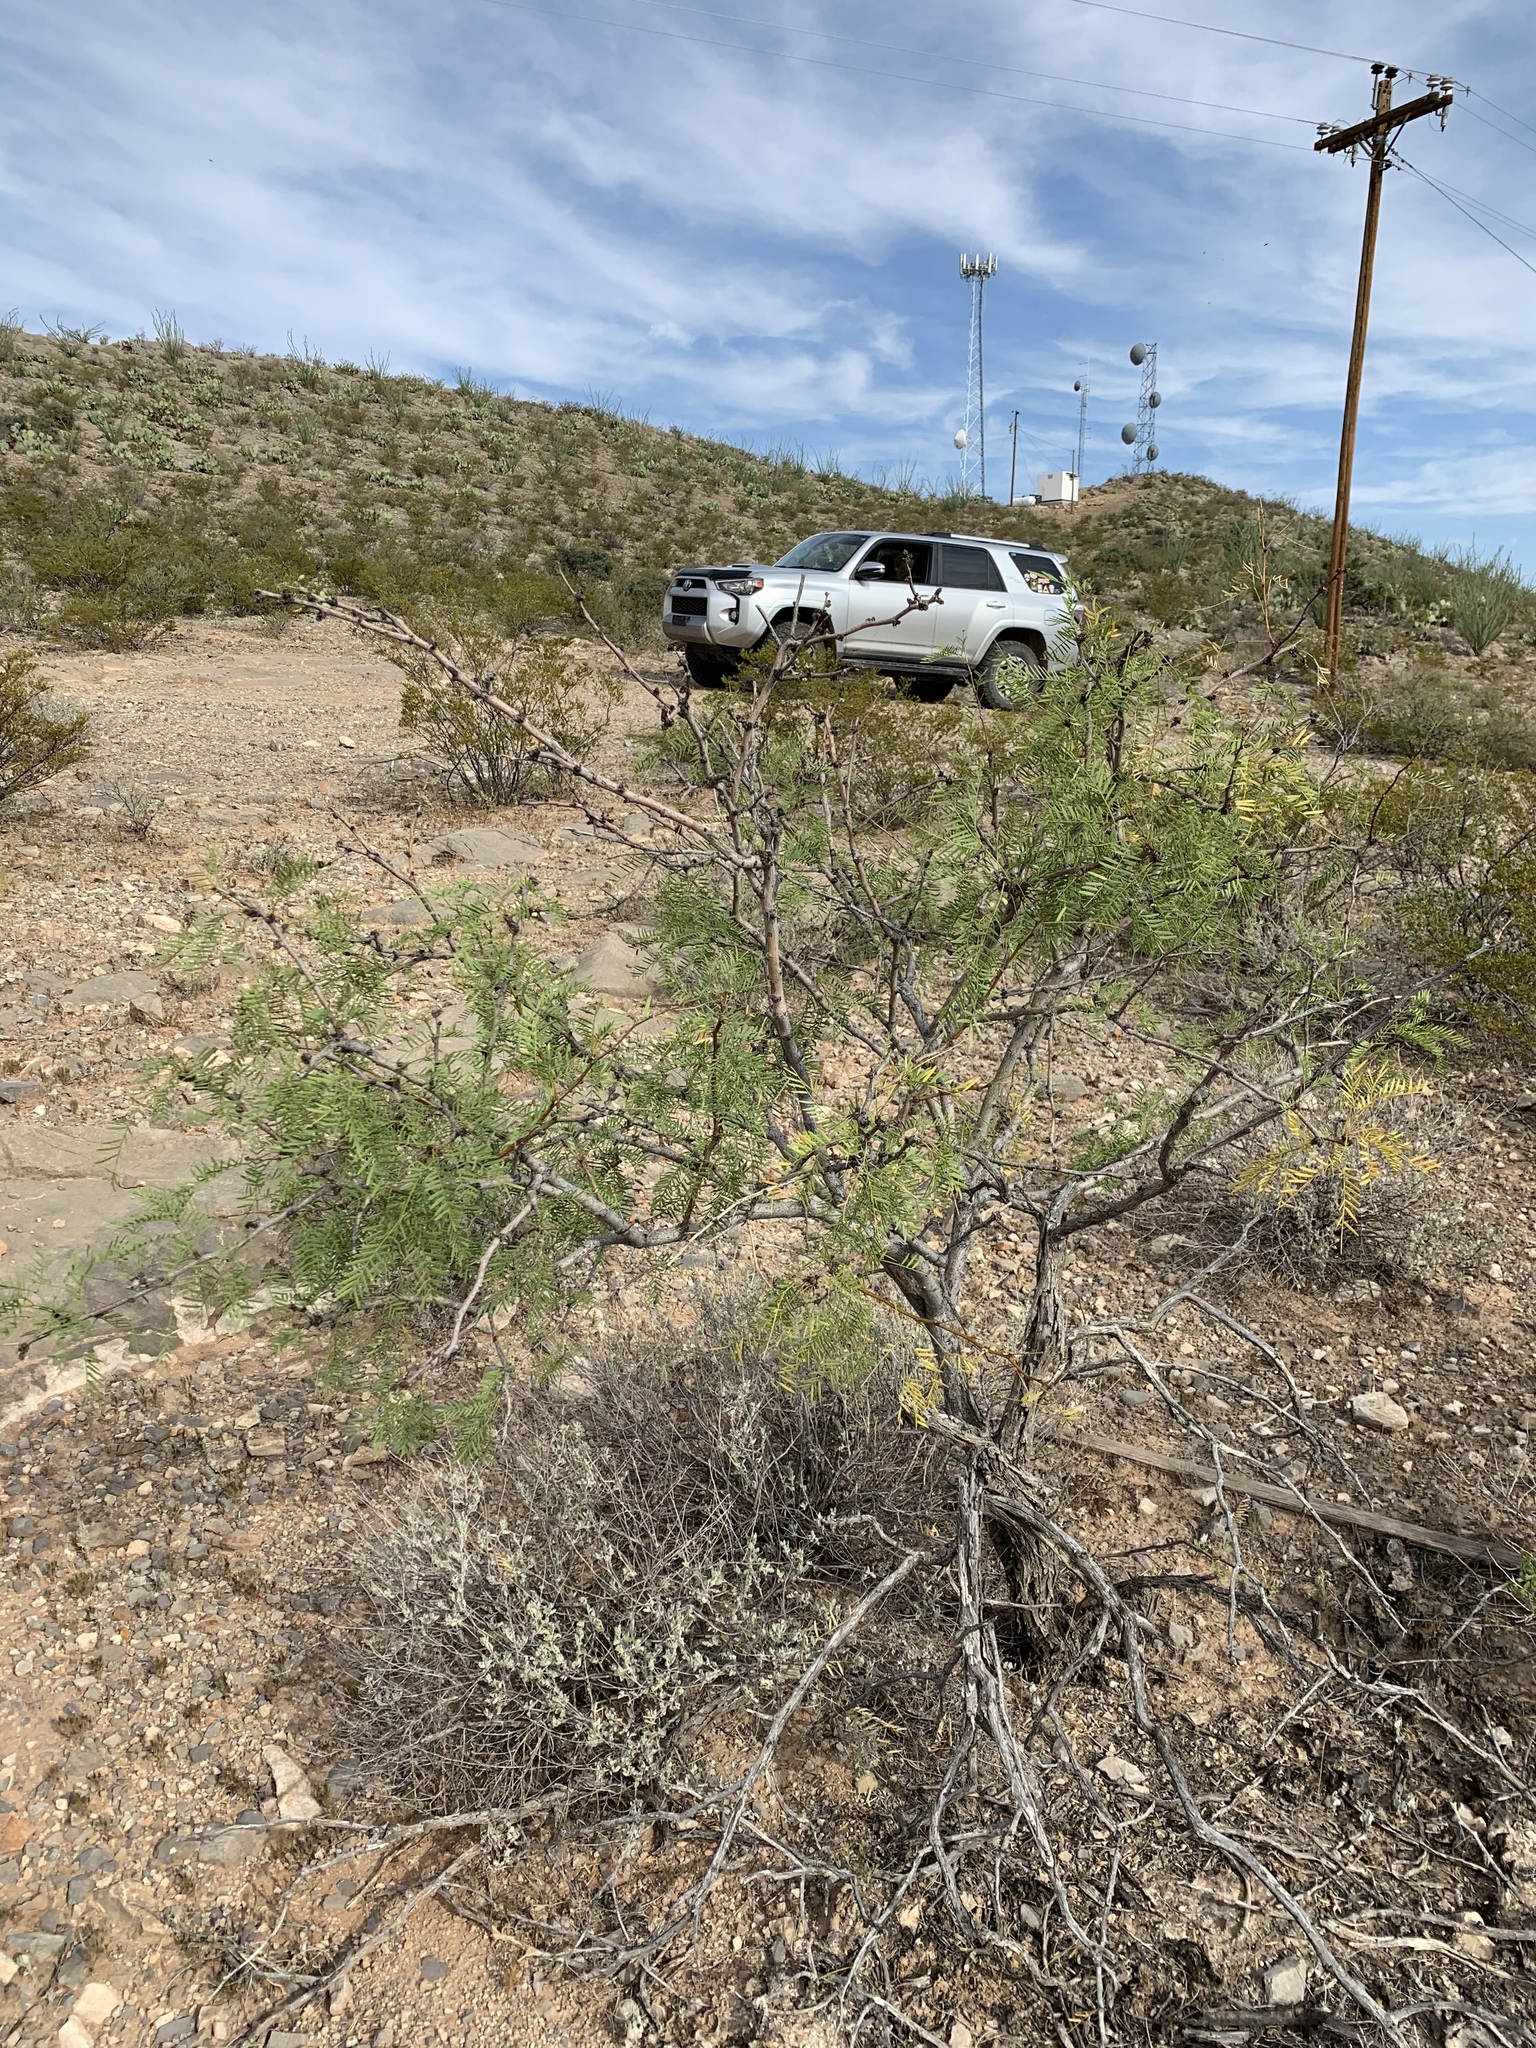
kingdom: Plantae
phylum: Tracheophyta
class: Magnoliopsida
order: Fabales
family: Fabaceae
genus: Prosopis
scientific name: Prosopis glandulosa
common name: Honey mesquite
